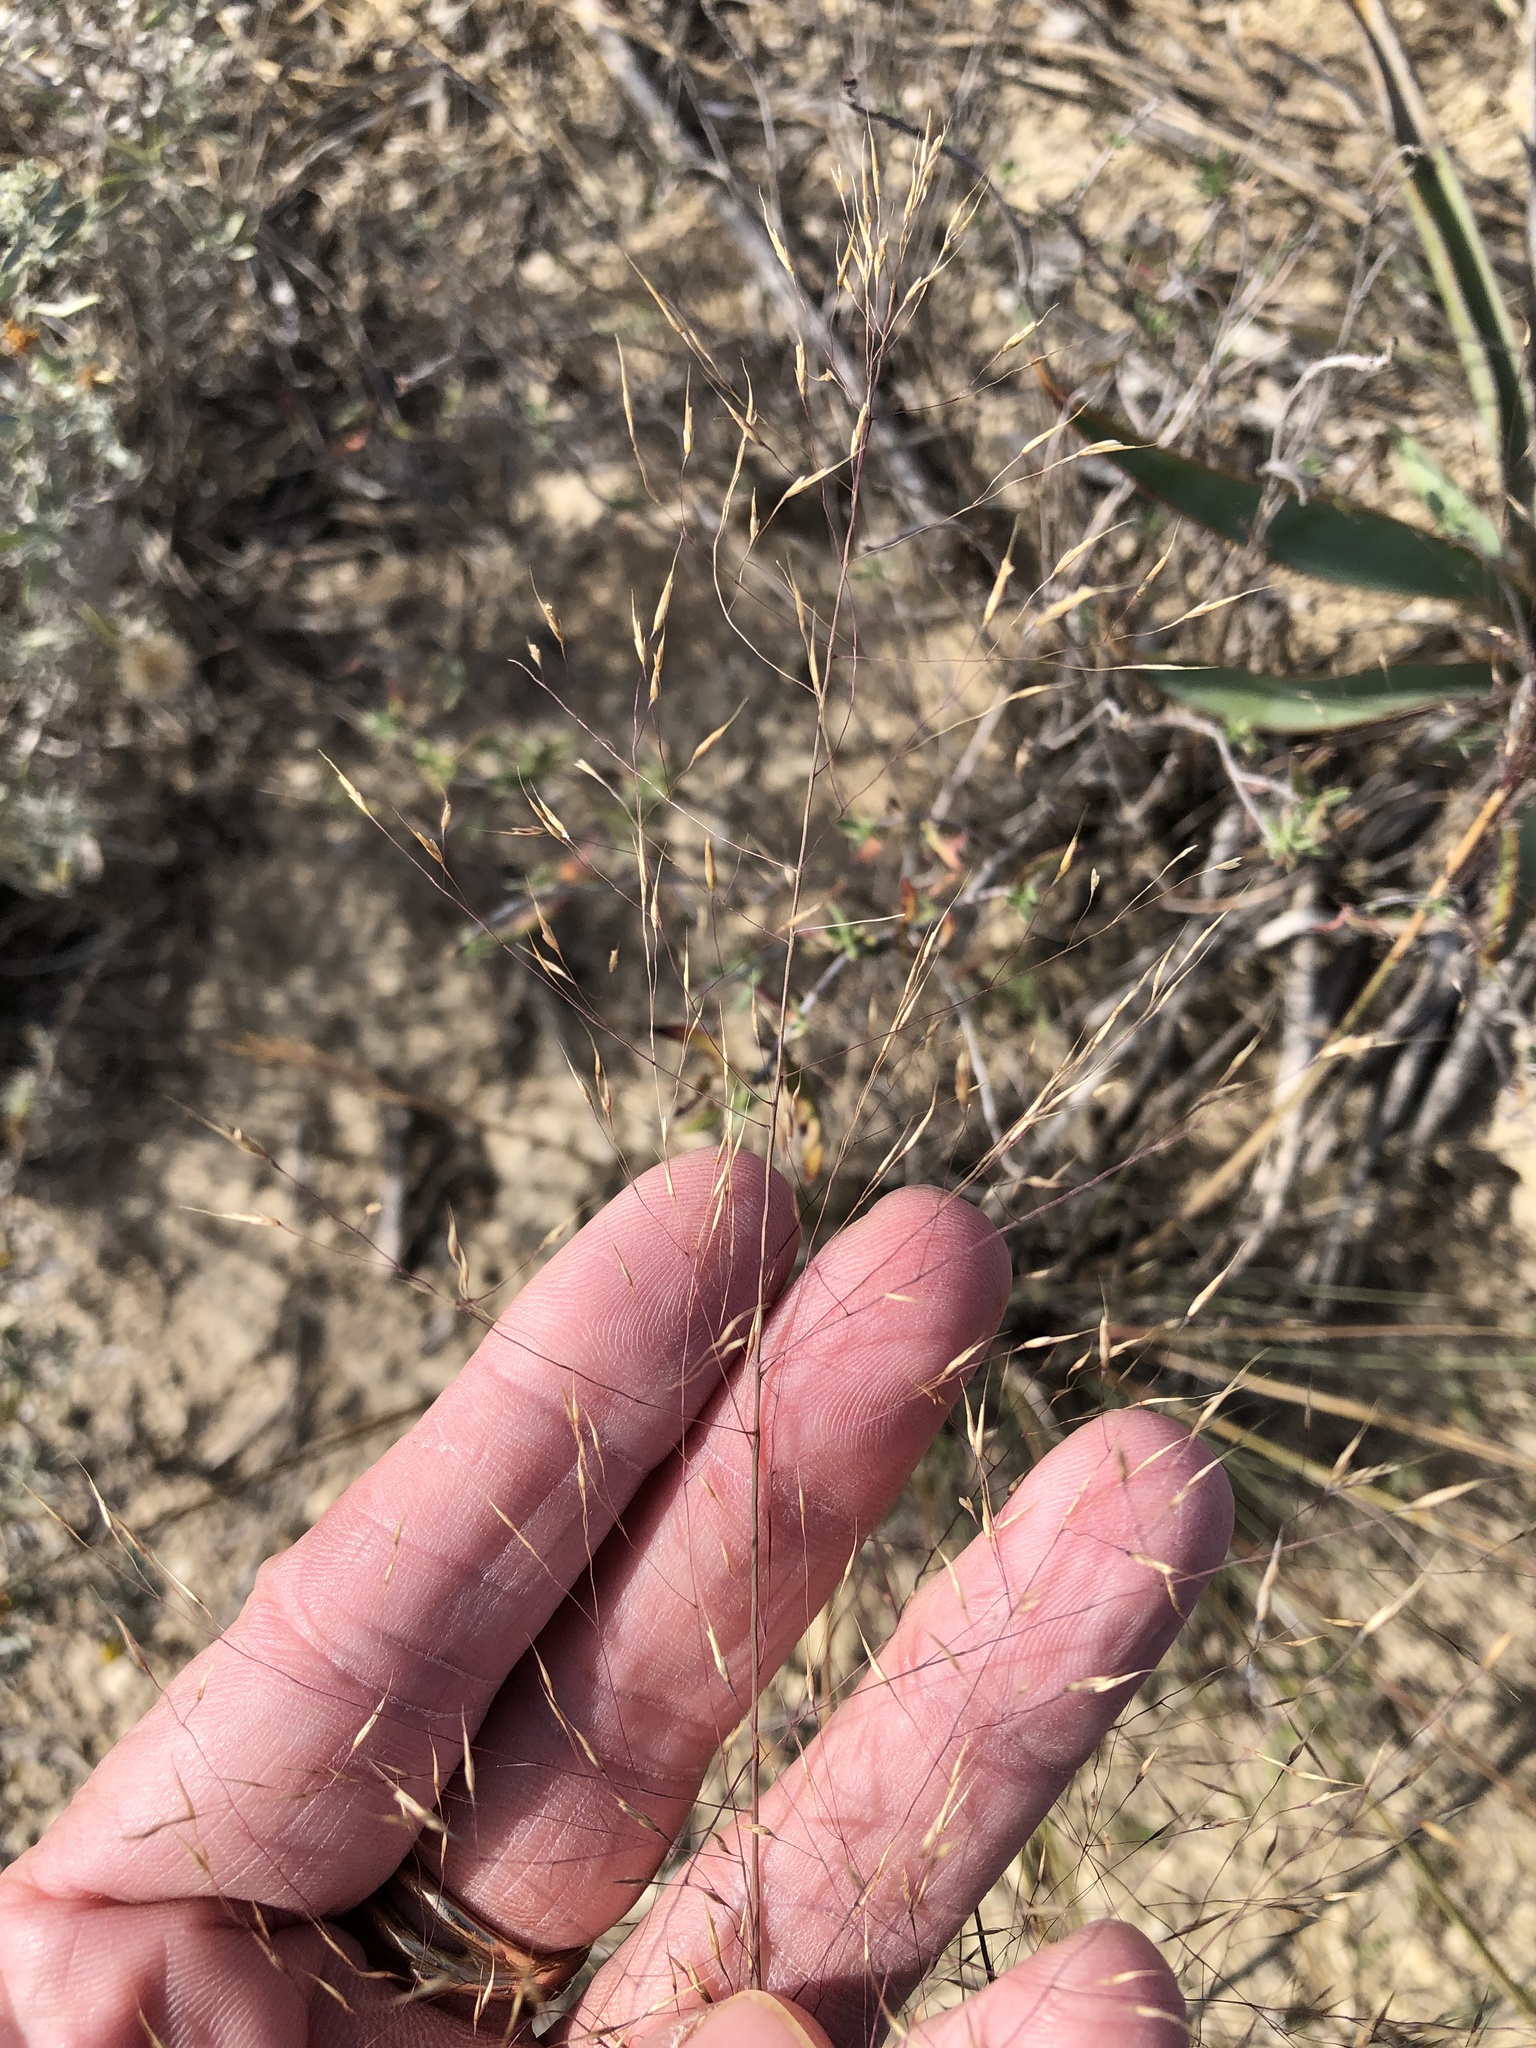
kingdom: Plantae
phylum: Tracheophyta
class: Liliopsida
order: Poales
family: Poaceae
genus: Muhlenbergia
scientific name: Muhlenbergia reverchonii
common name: Seep muhly
